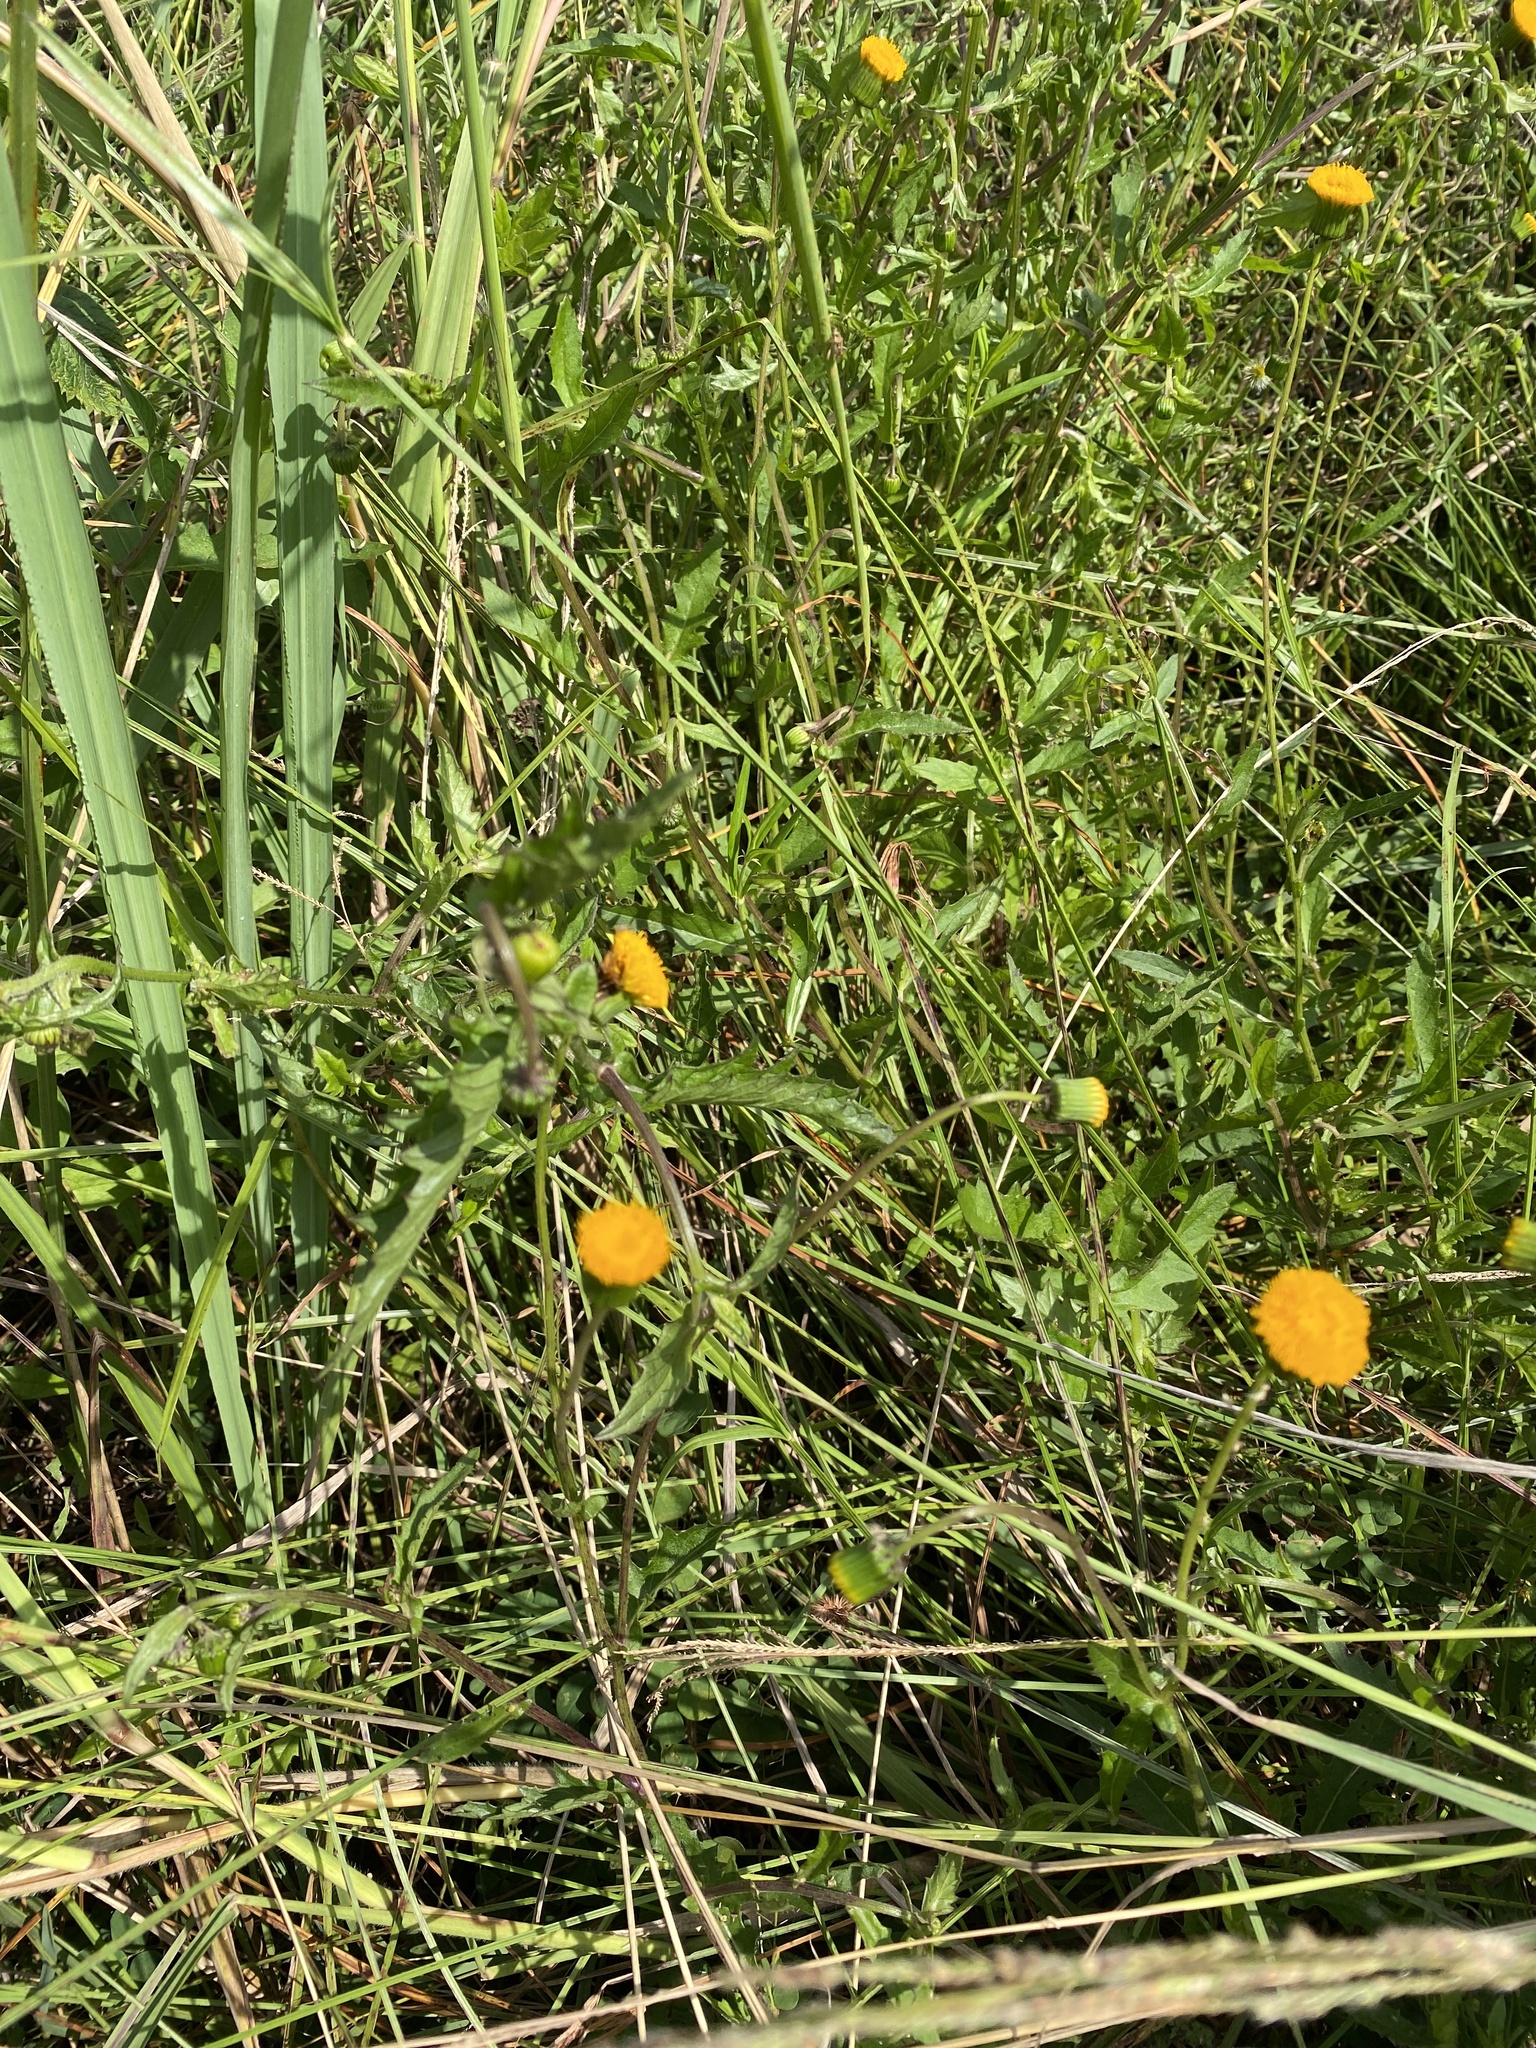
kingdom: Plantae
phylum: Tracheophyta
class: Magnoliopsida
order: Asterales
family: Asteraceae
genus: Crassocephalum
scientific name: Crassocephalum picridifolium
